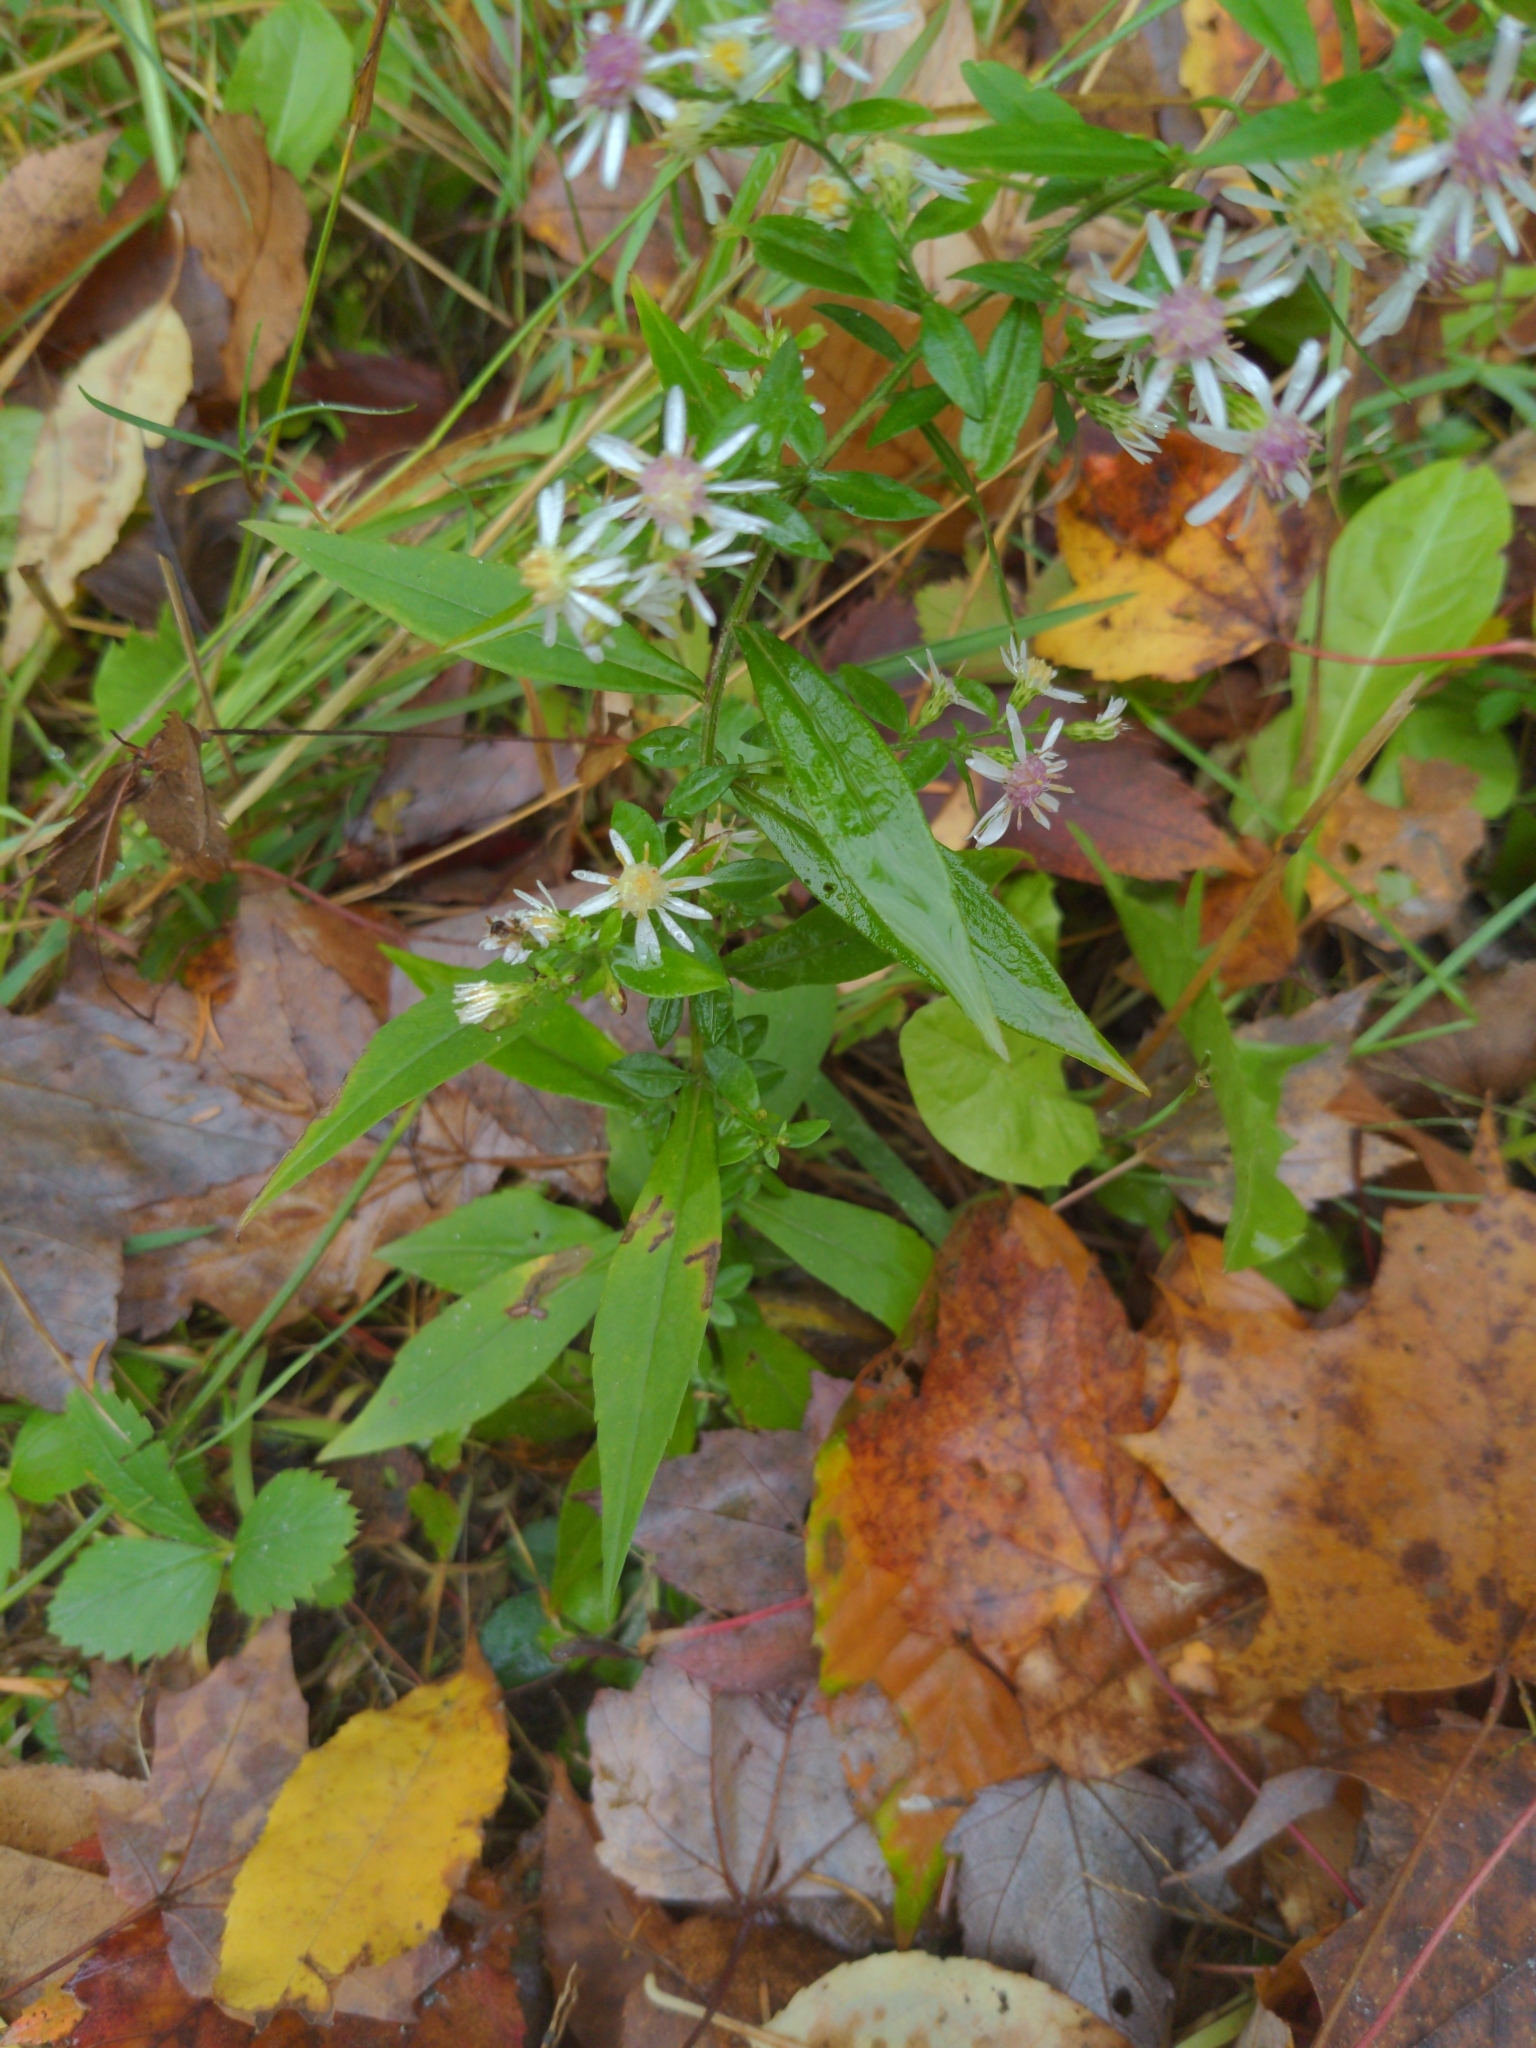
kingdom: Plantae
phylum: Tracheophyta
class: Magnoliopsida
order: Asterales
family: Asteraceae
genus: Symphyotrichum
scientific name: Symphyotrichum lateriflorum
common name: Calico aster
